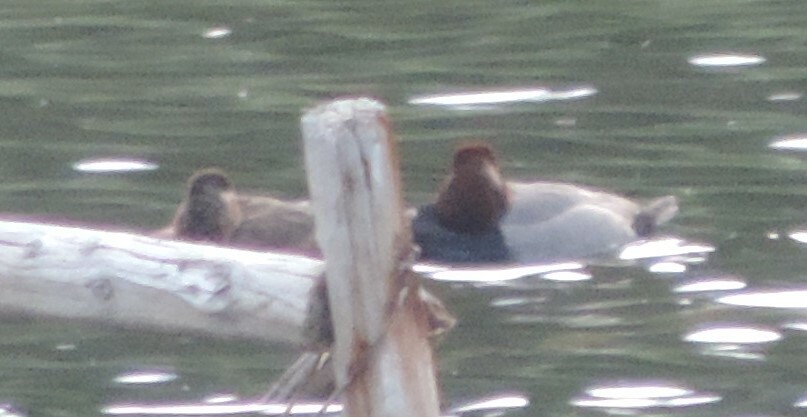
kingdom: Animalia
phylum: Chordata
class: Aves
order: Anseriformes
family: Anatidae
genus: Aythya
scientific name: Aythya americana
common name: Redhead
